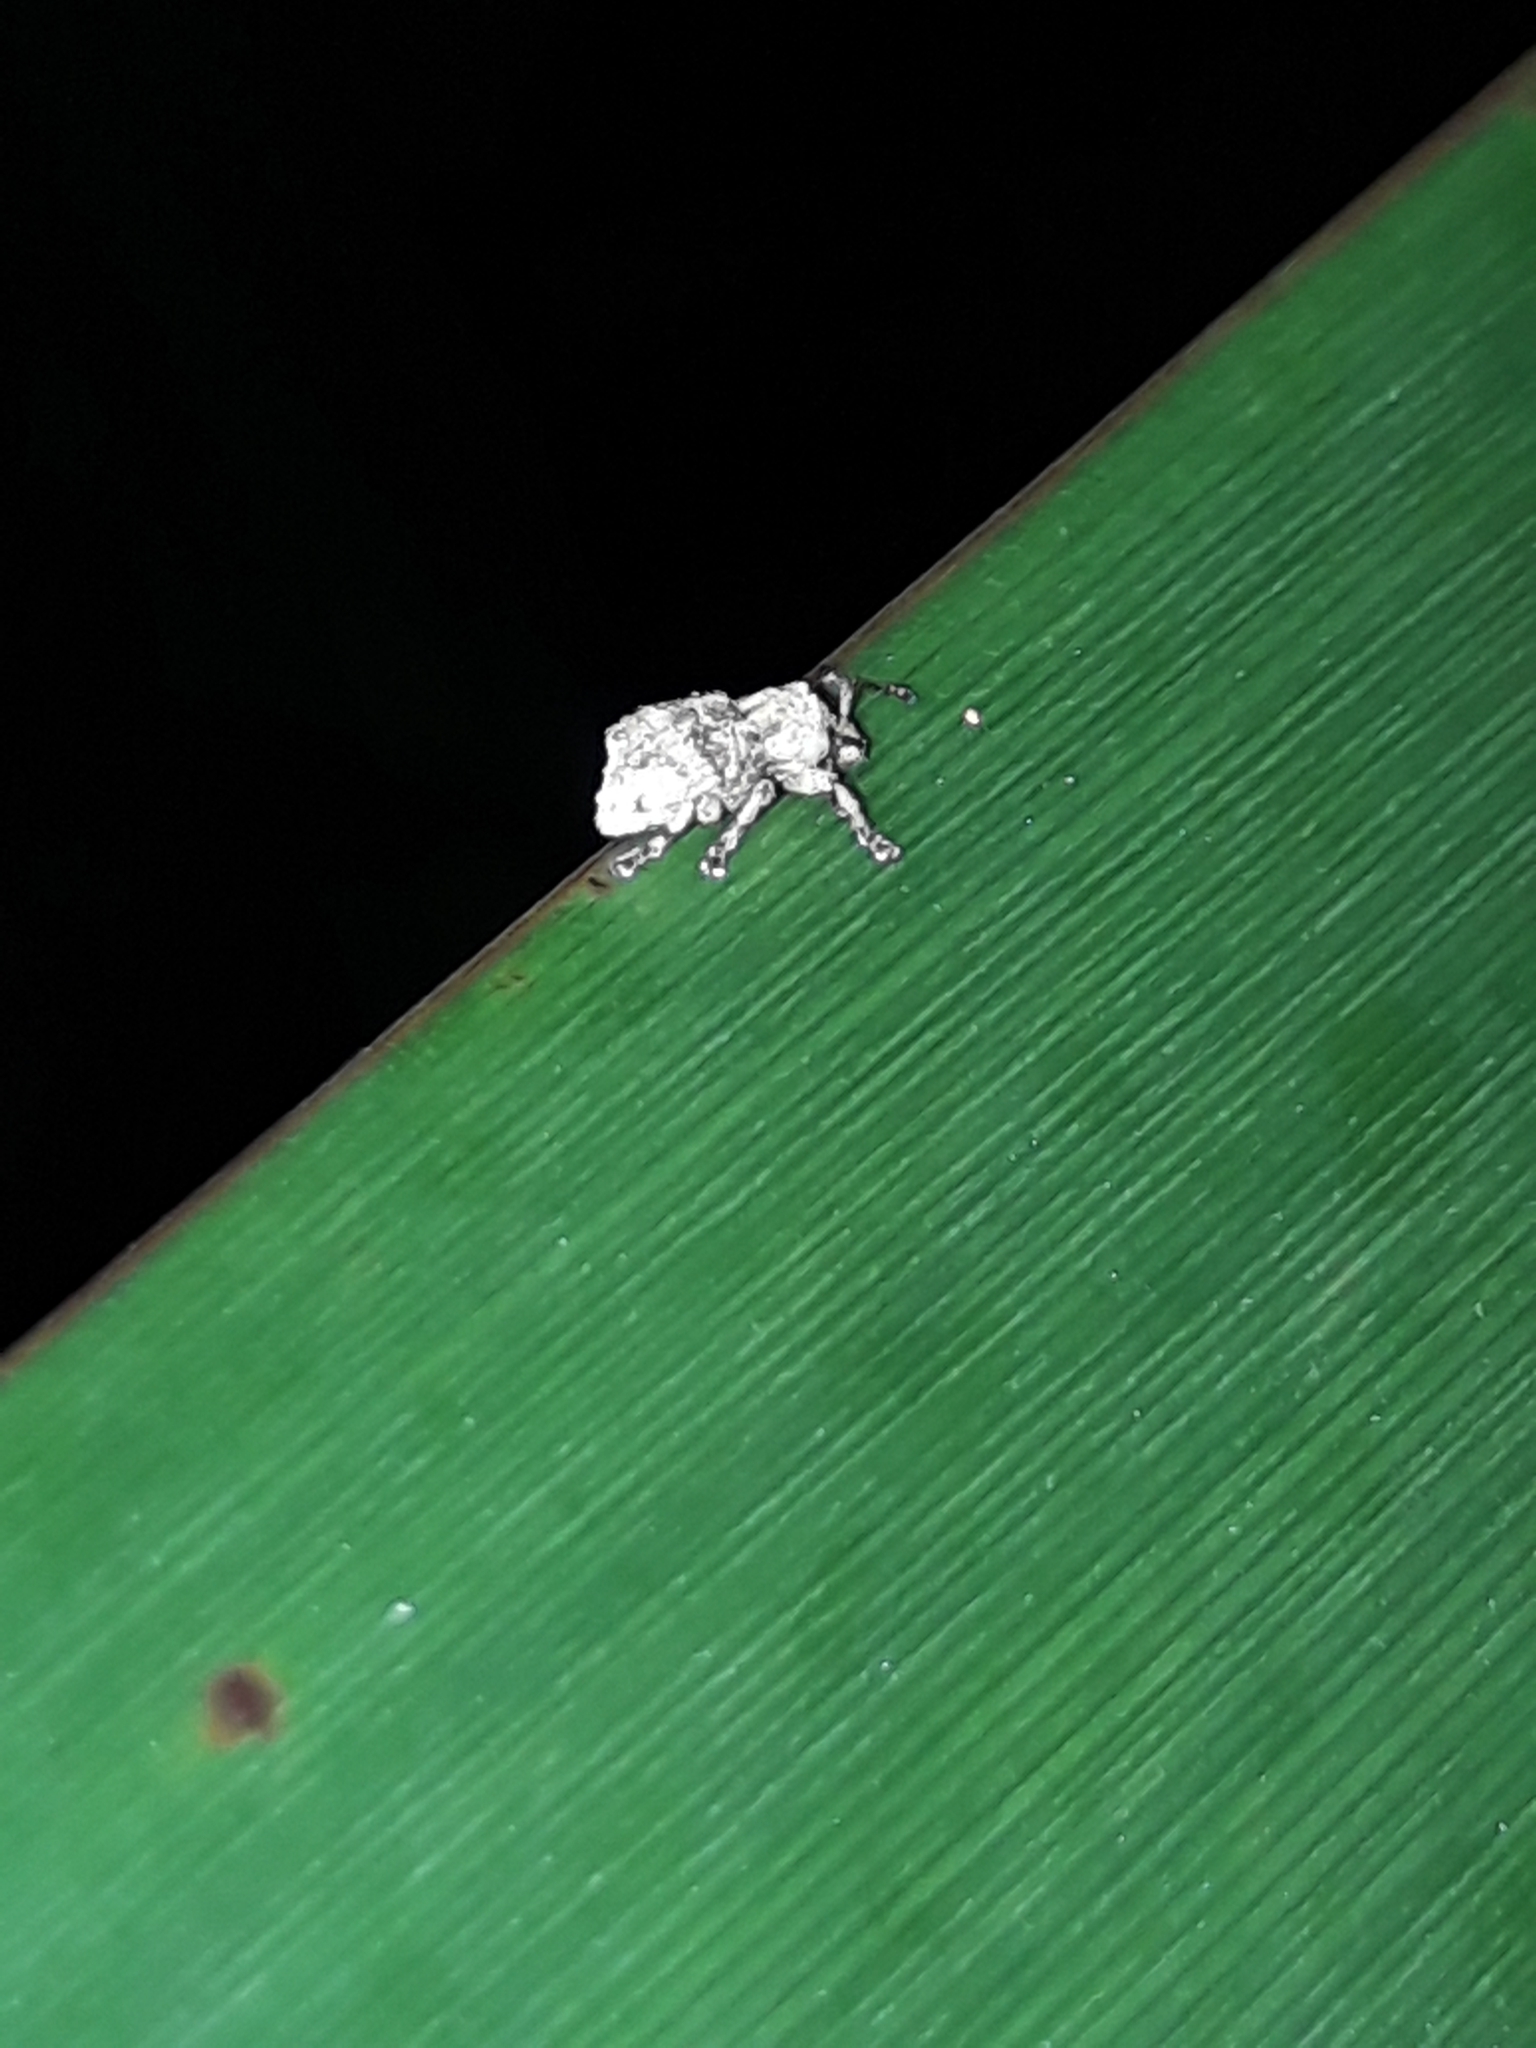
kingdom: Animalia
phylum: Arthropoda
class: Insecta
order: Coleoptera
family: Curculionidae
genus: Brachyolus
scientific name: Brachyolus punctatus
